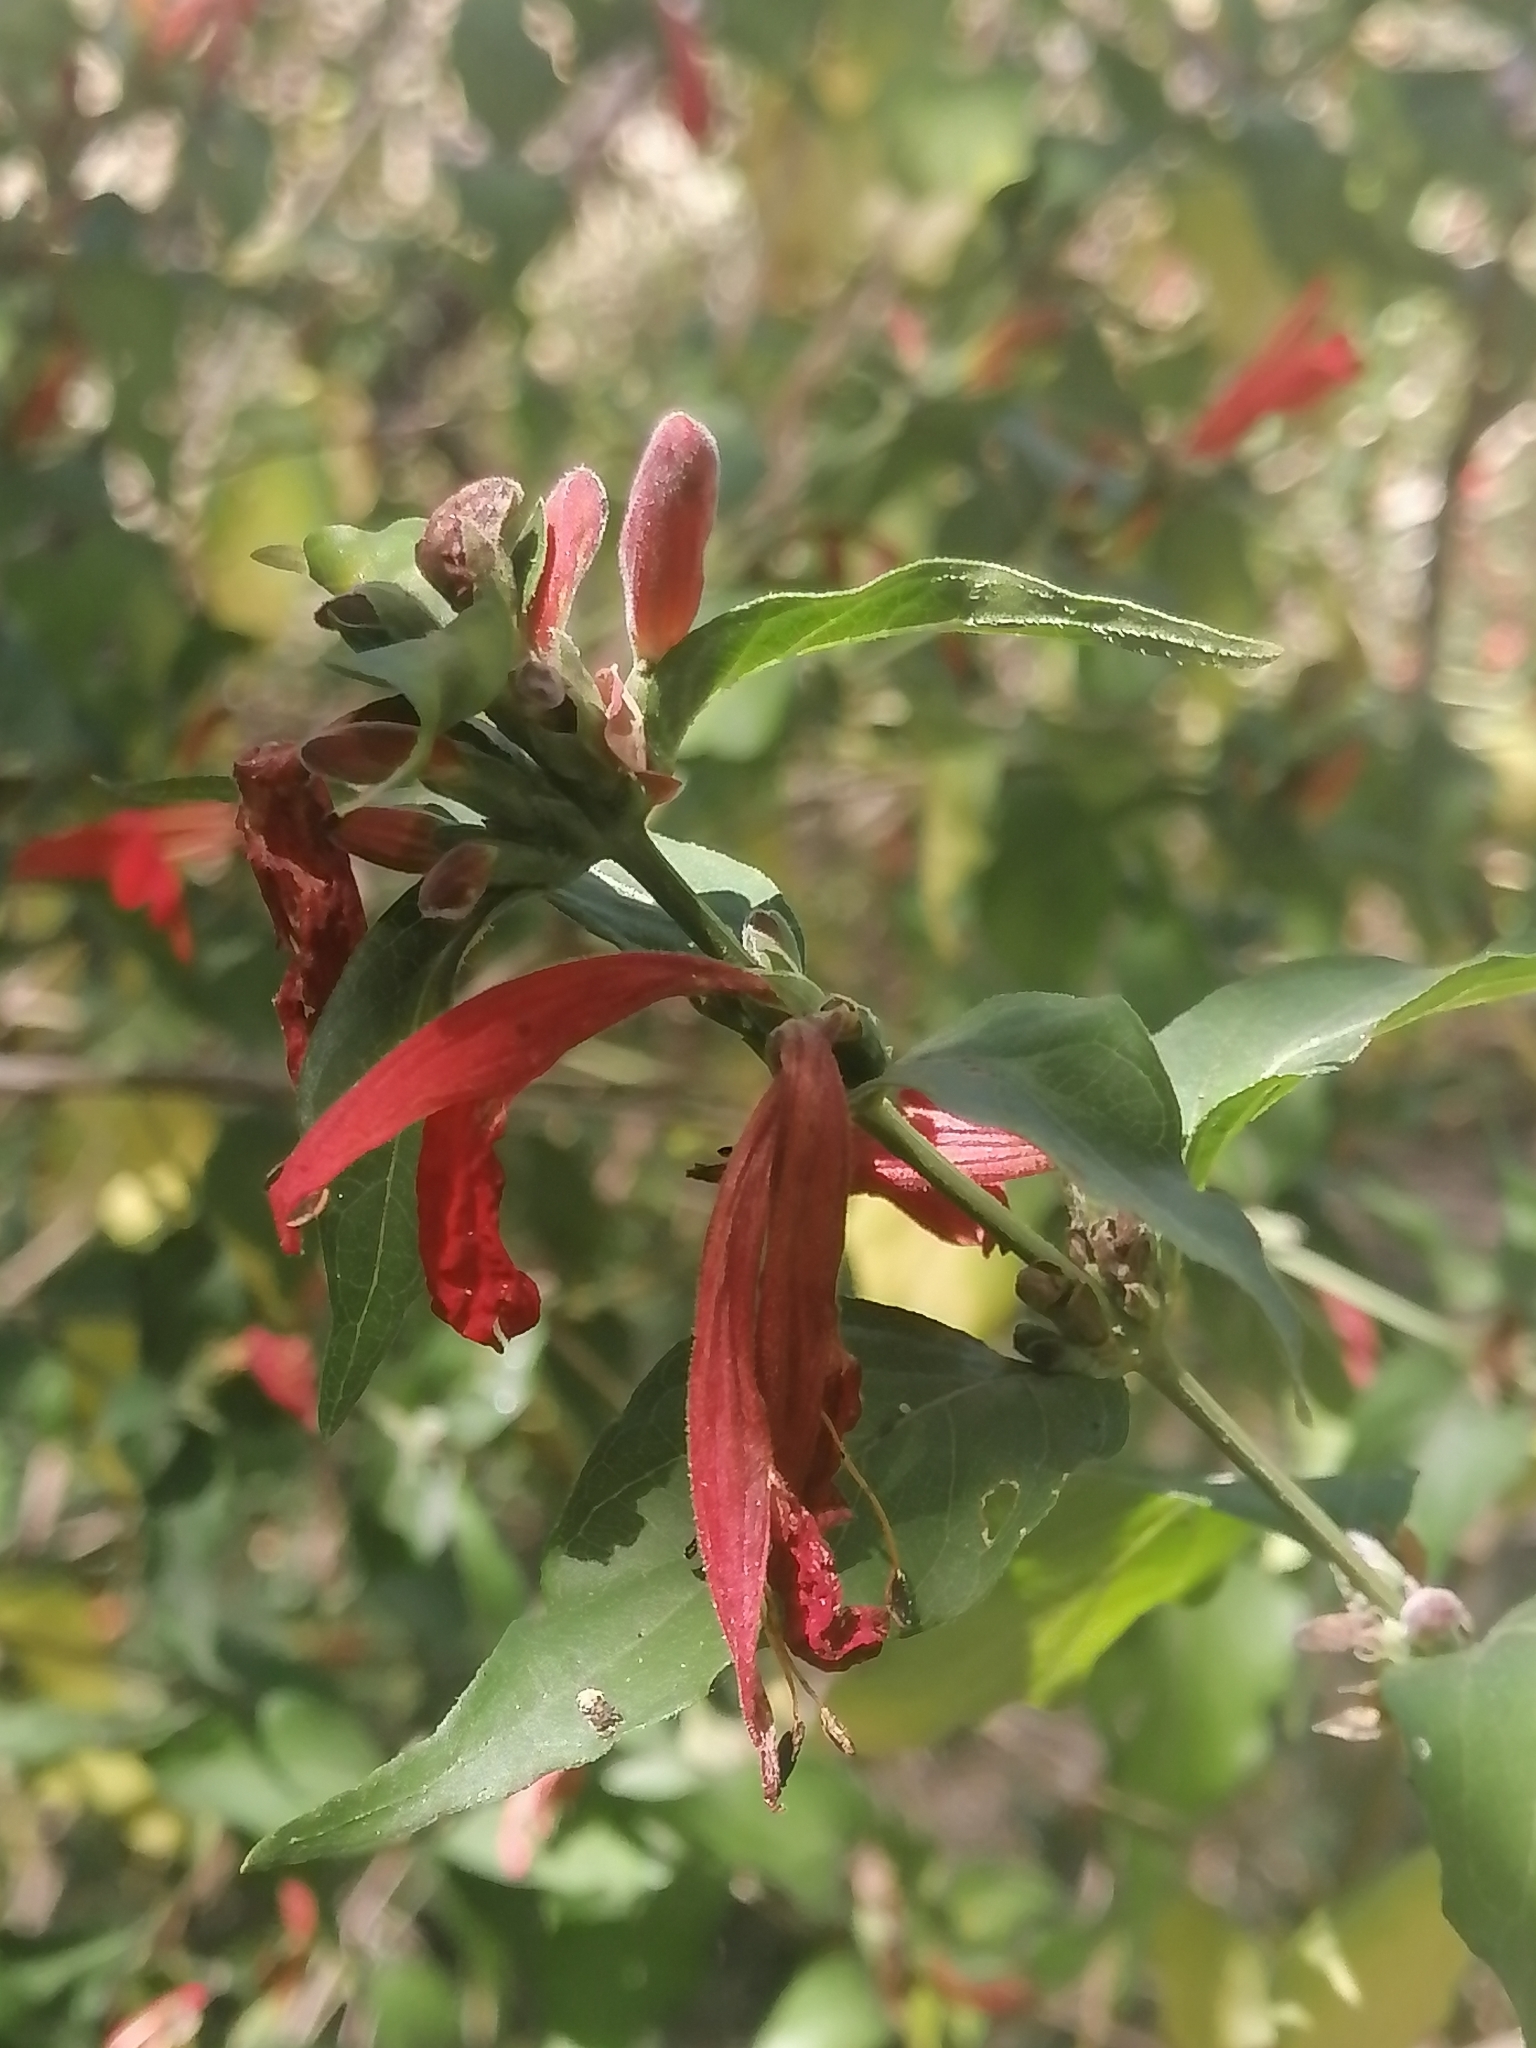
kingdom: Plantae
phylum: Tracheophyta
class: Magnoliopsida
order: Lamiales
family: Acanthaceae
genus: Dianthera
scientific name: Dianthera candicans
